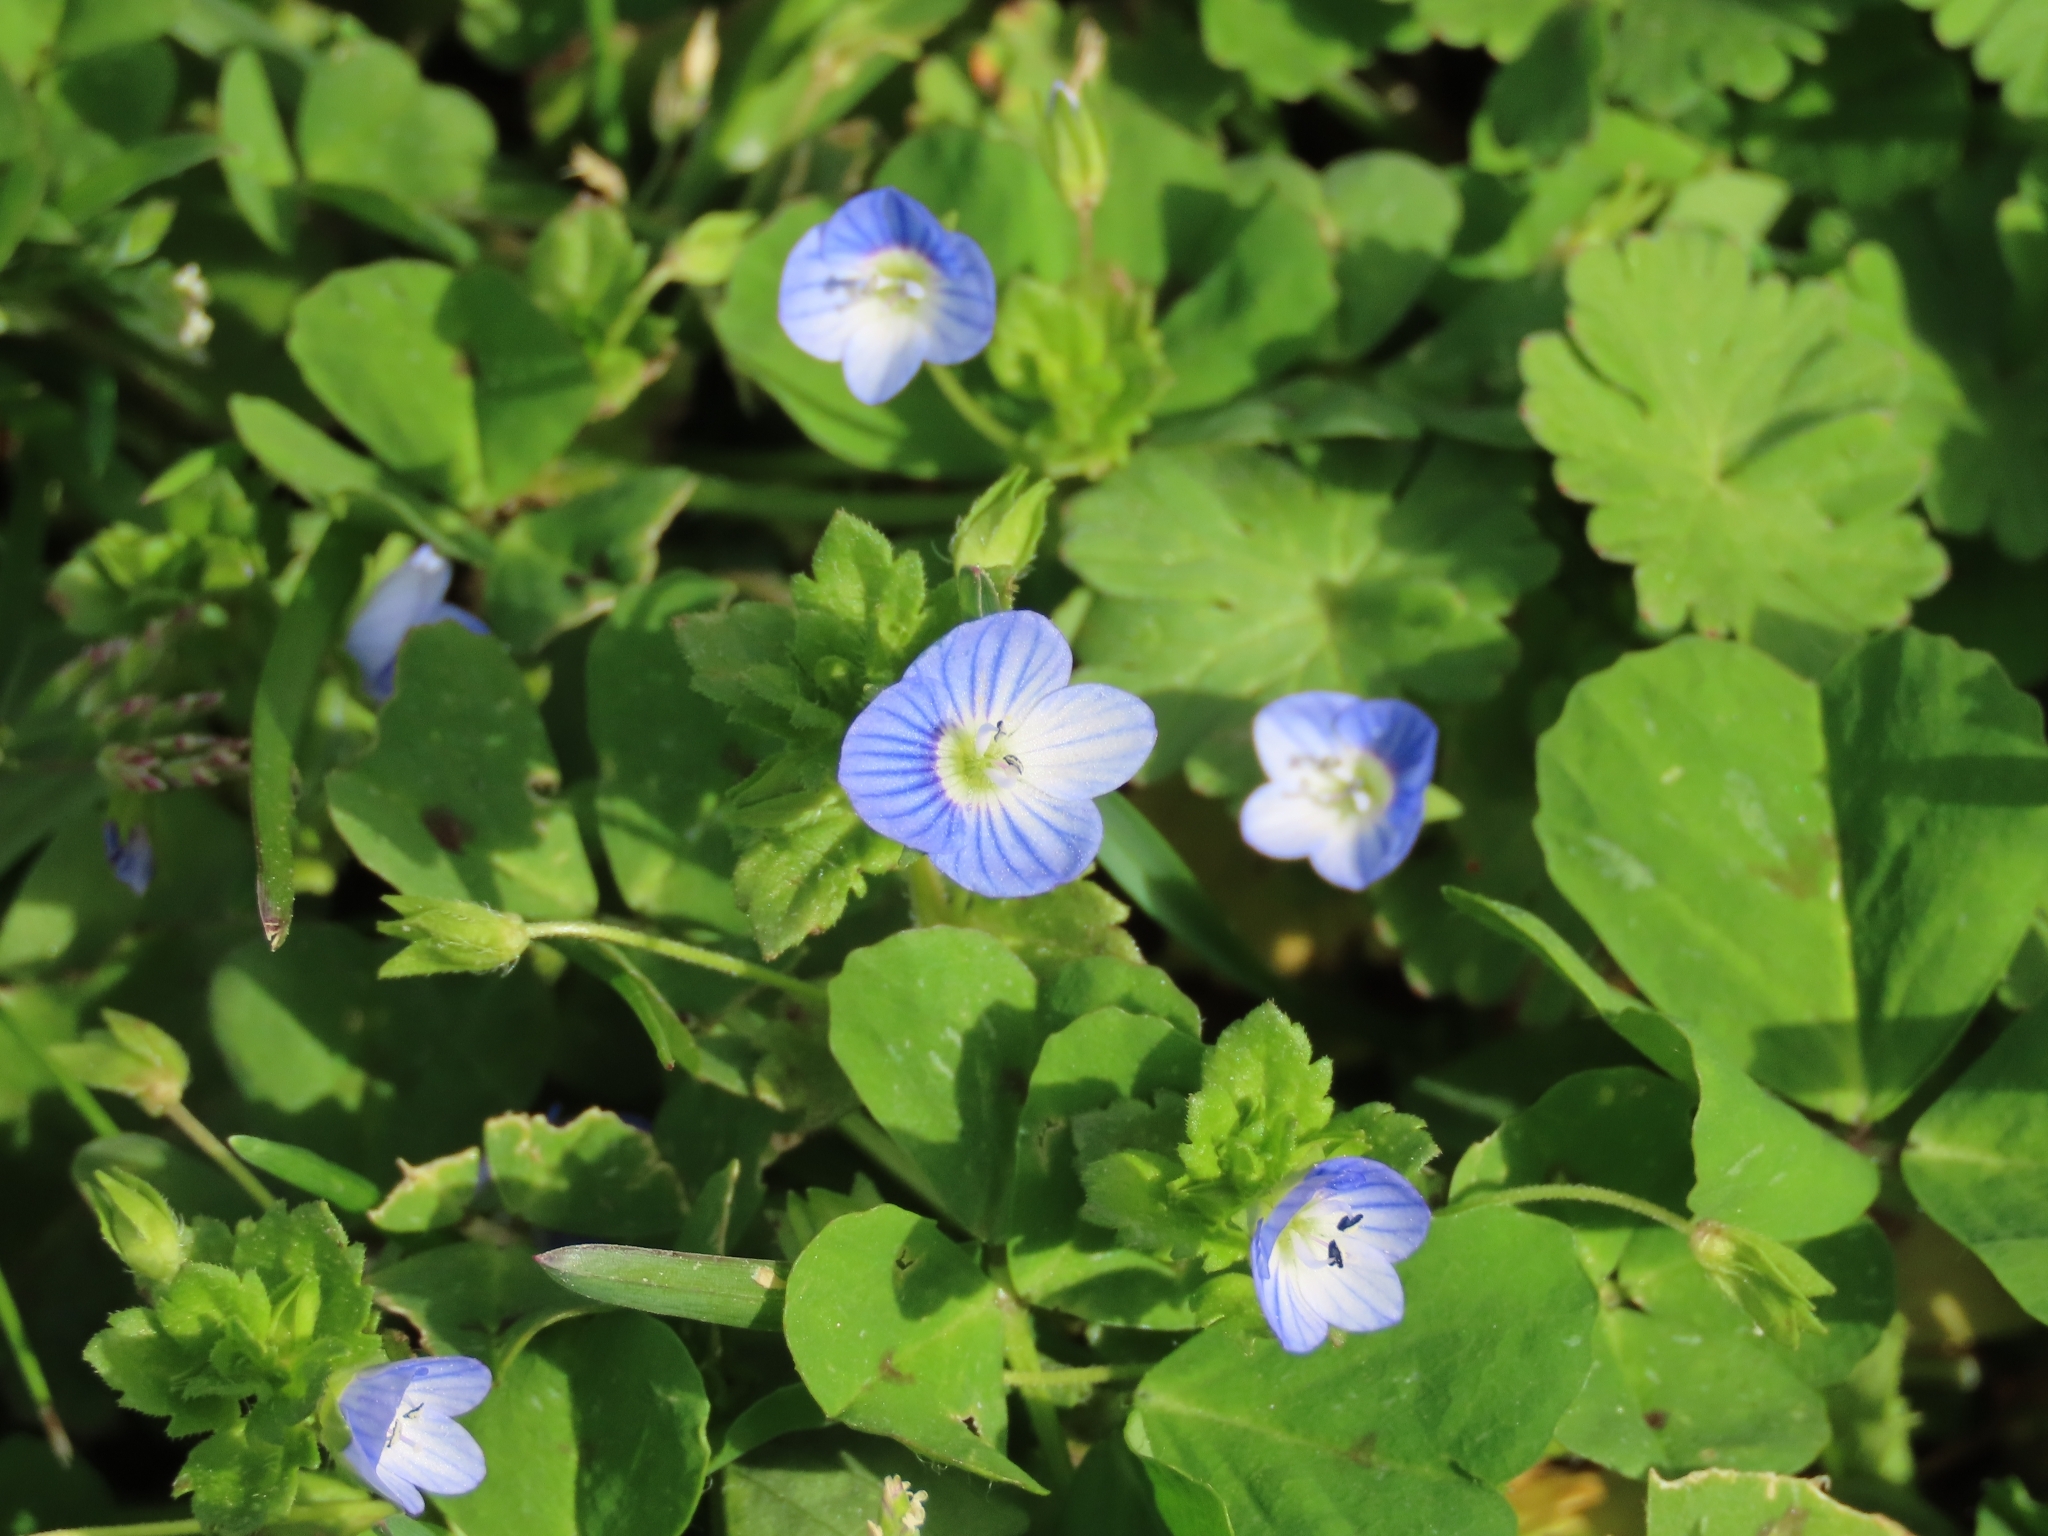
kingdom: Plantae
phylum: Tracheophyta
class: Magnoliopsida
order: Lamiales
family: Plantaginaceae
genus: Veronica
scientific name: Veronica persica
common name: Common field-speedwell
